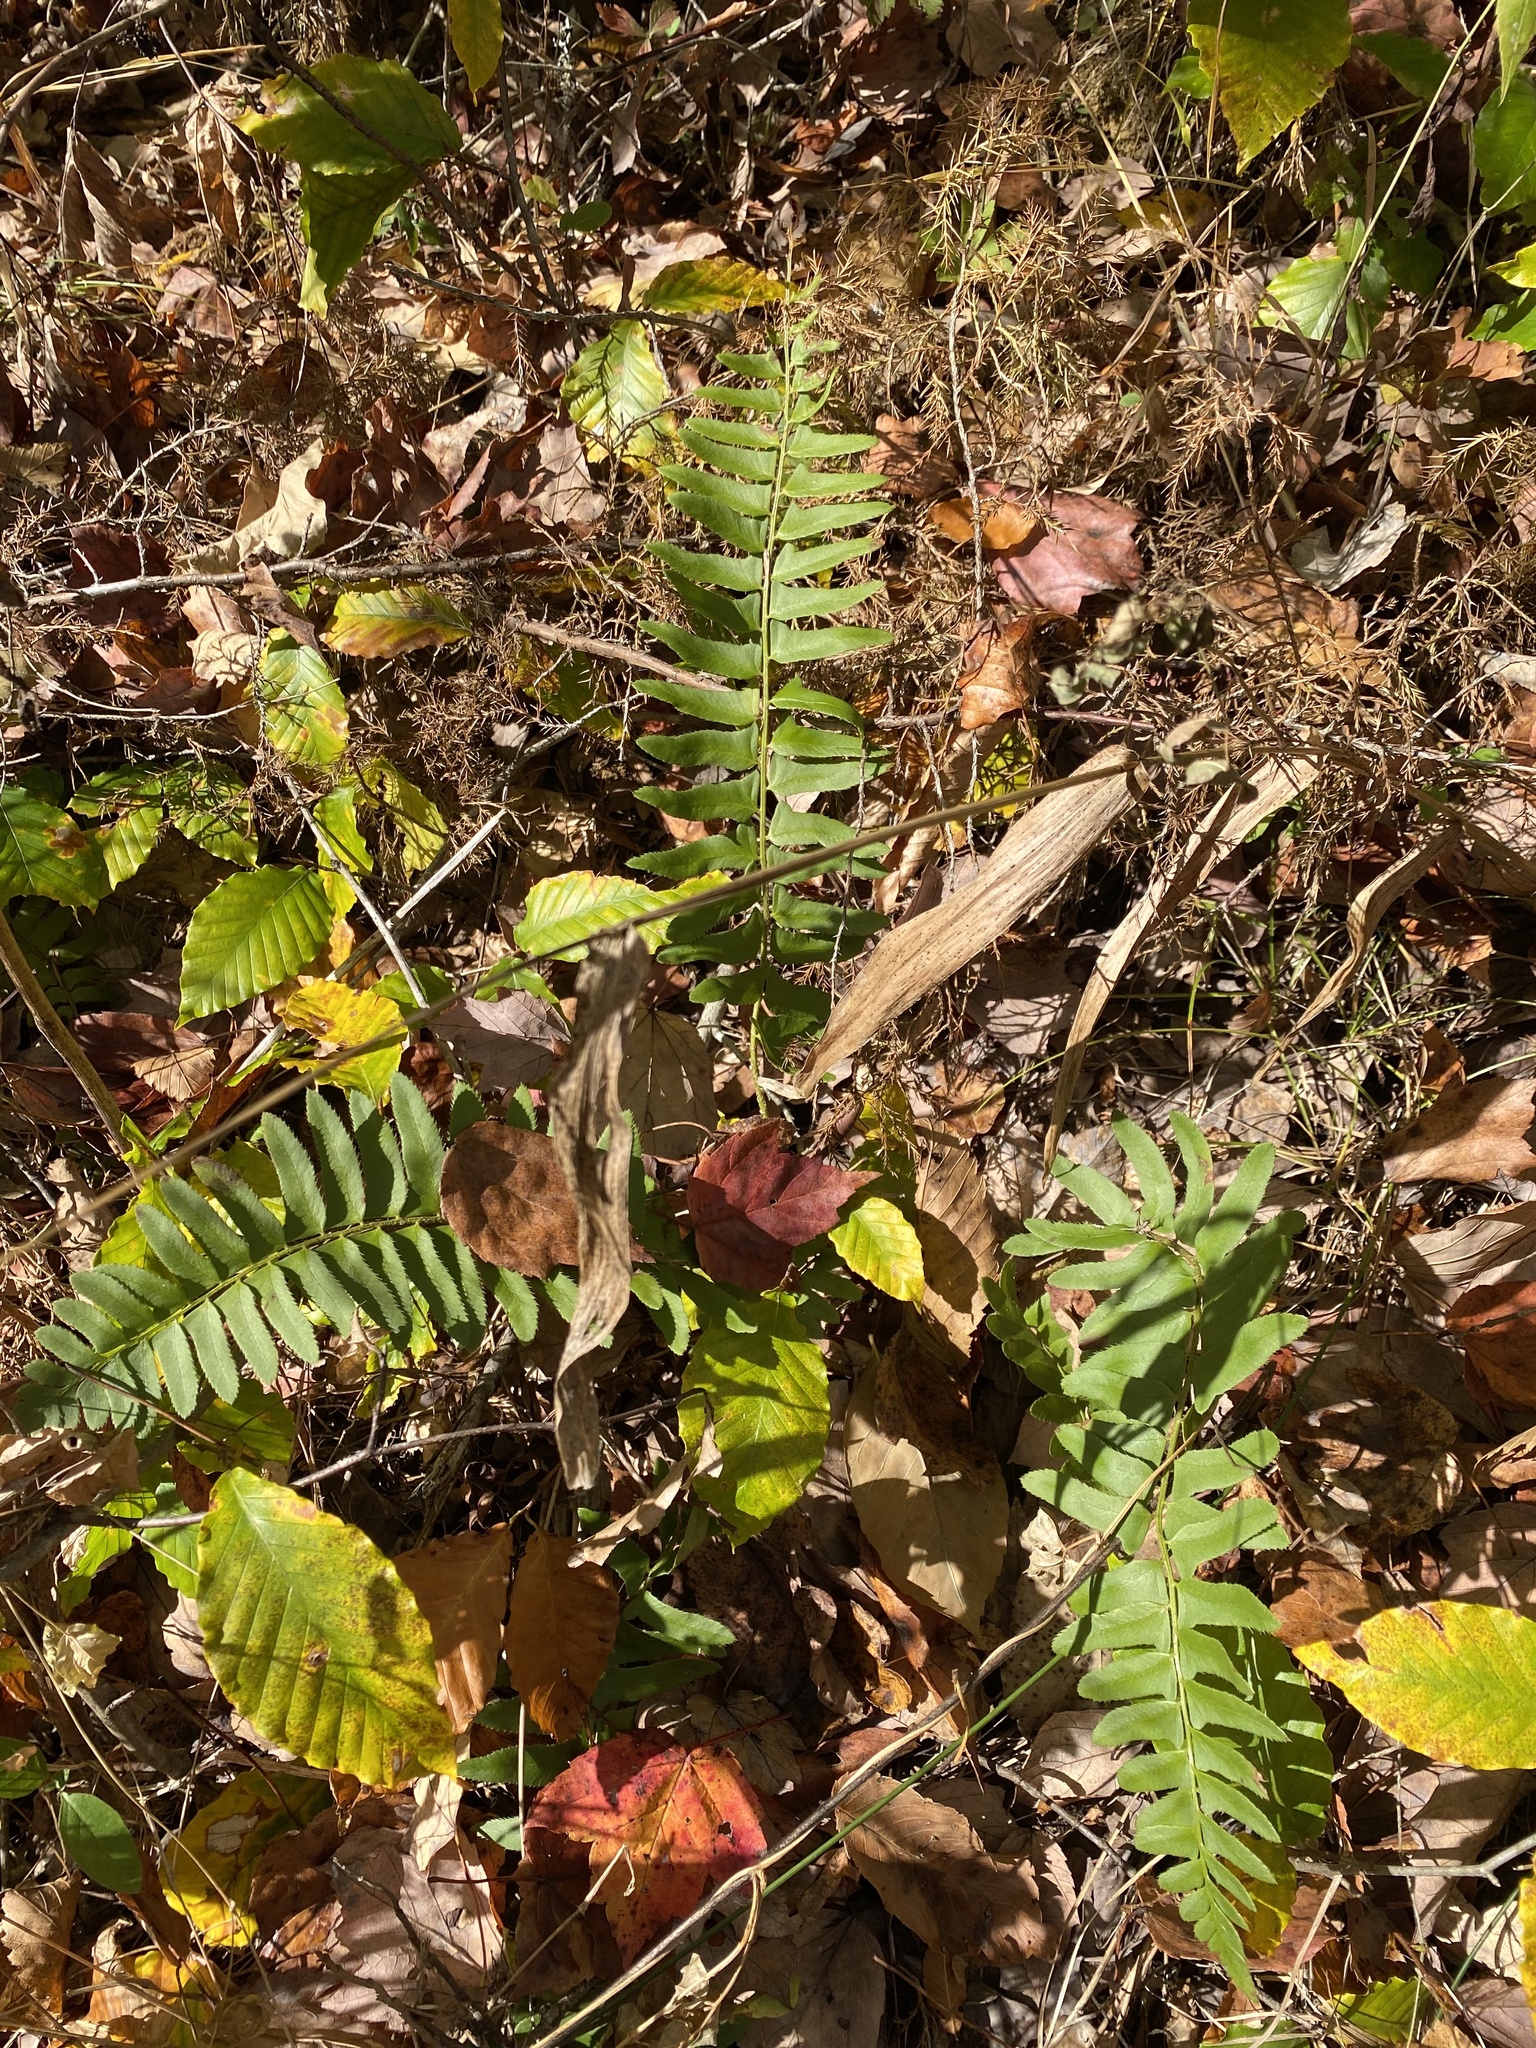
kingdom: Plantae
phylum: Tracheophyta
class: Polypodiopsida
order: Polypodiales
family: Dryopteridaceae
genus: Polystichum
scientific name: Polystichum acrostichoides
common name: Christmas fern
